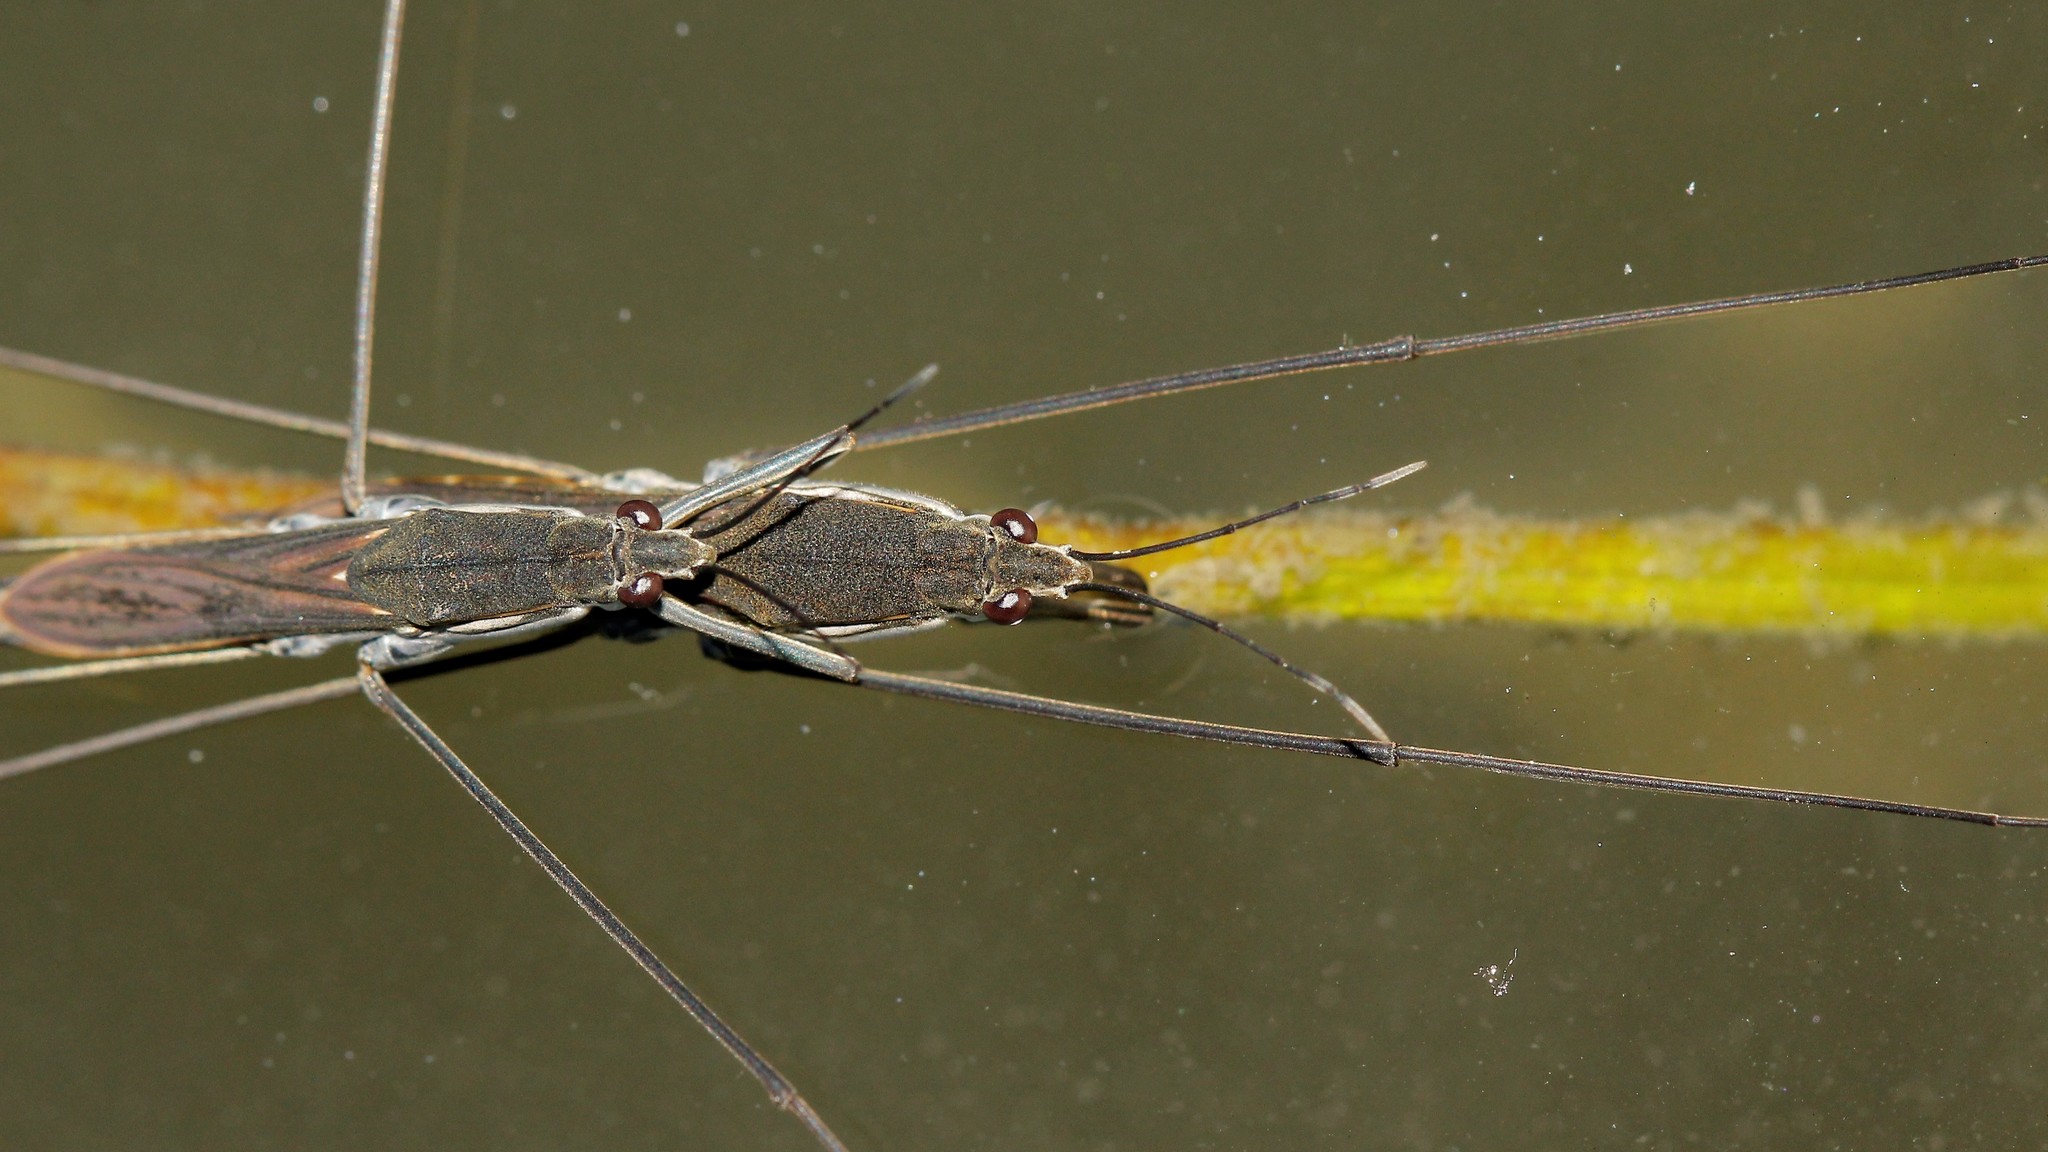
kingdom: Animalia
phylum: Arthropoda
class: Insecta
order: Hemiptera
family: Gerridae
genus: Aquarius
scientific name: Aquarius paludum
